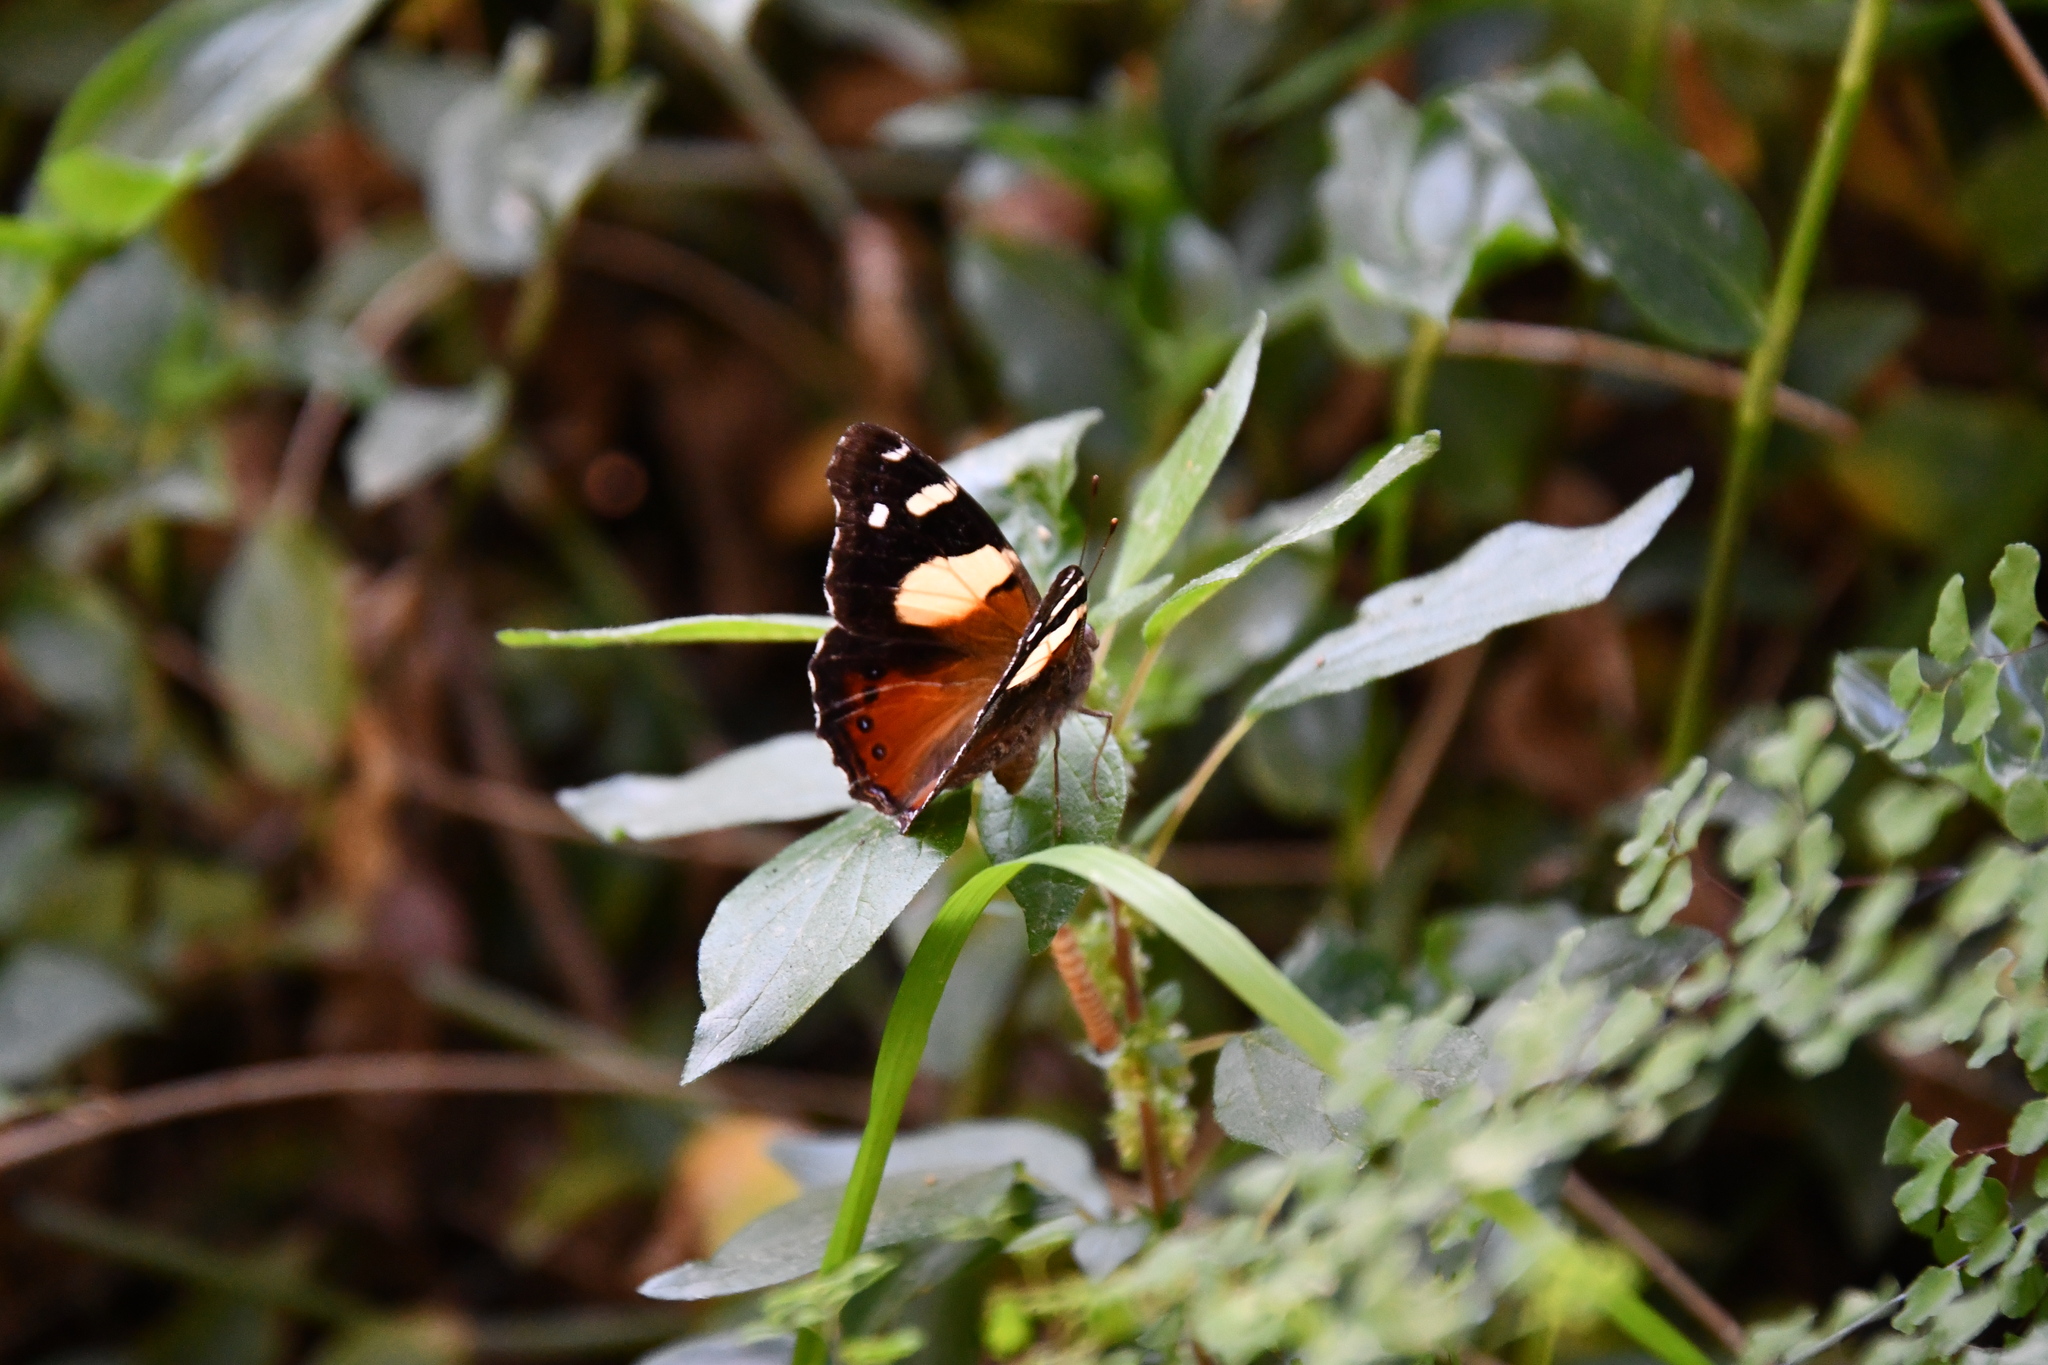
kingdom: Animalia
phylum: Arthropoda
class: Insecta
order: Lepidoptera
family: Nymphalidae
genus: Vanessa
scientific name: Vanessa itea
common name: Yellow admiral
